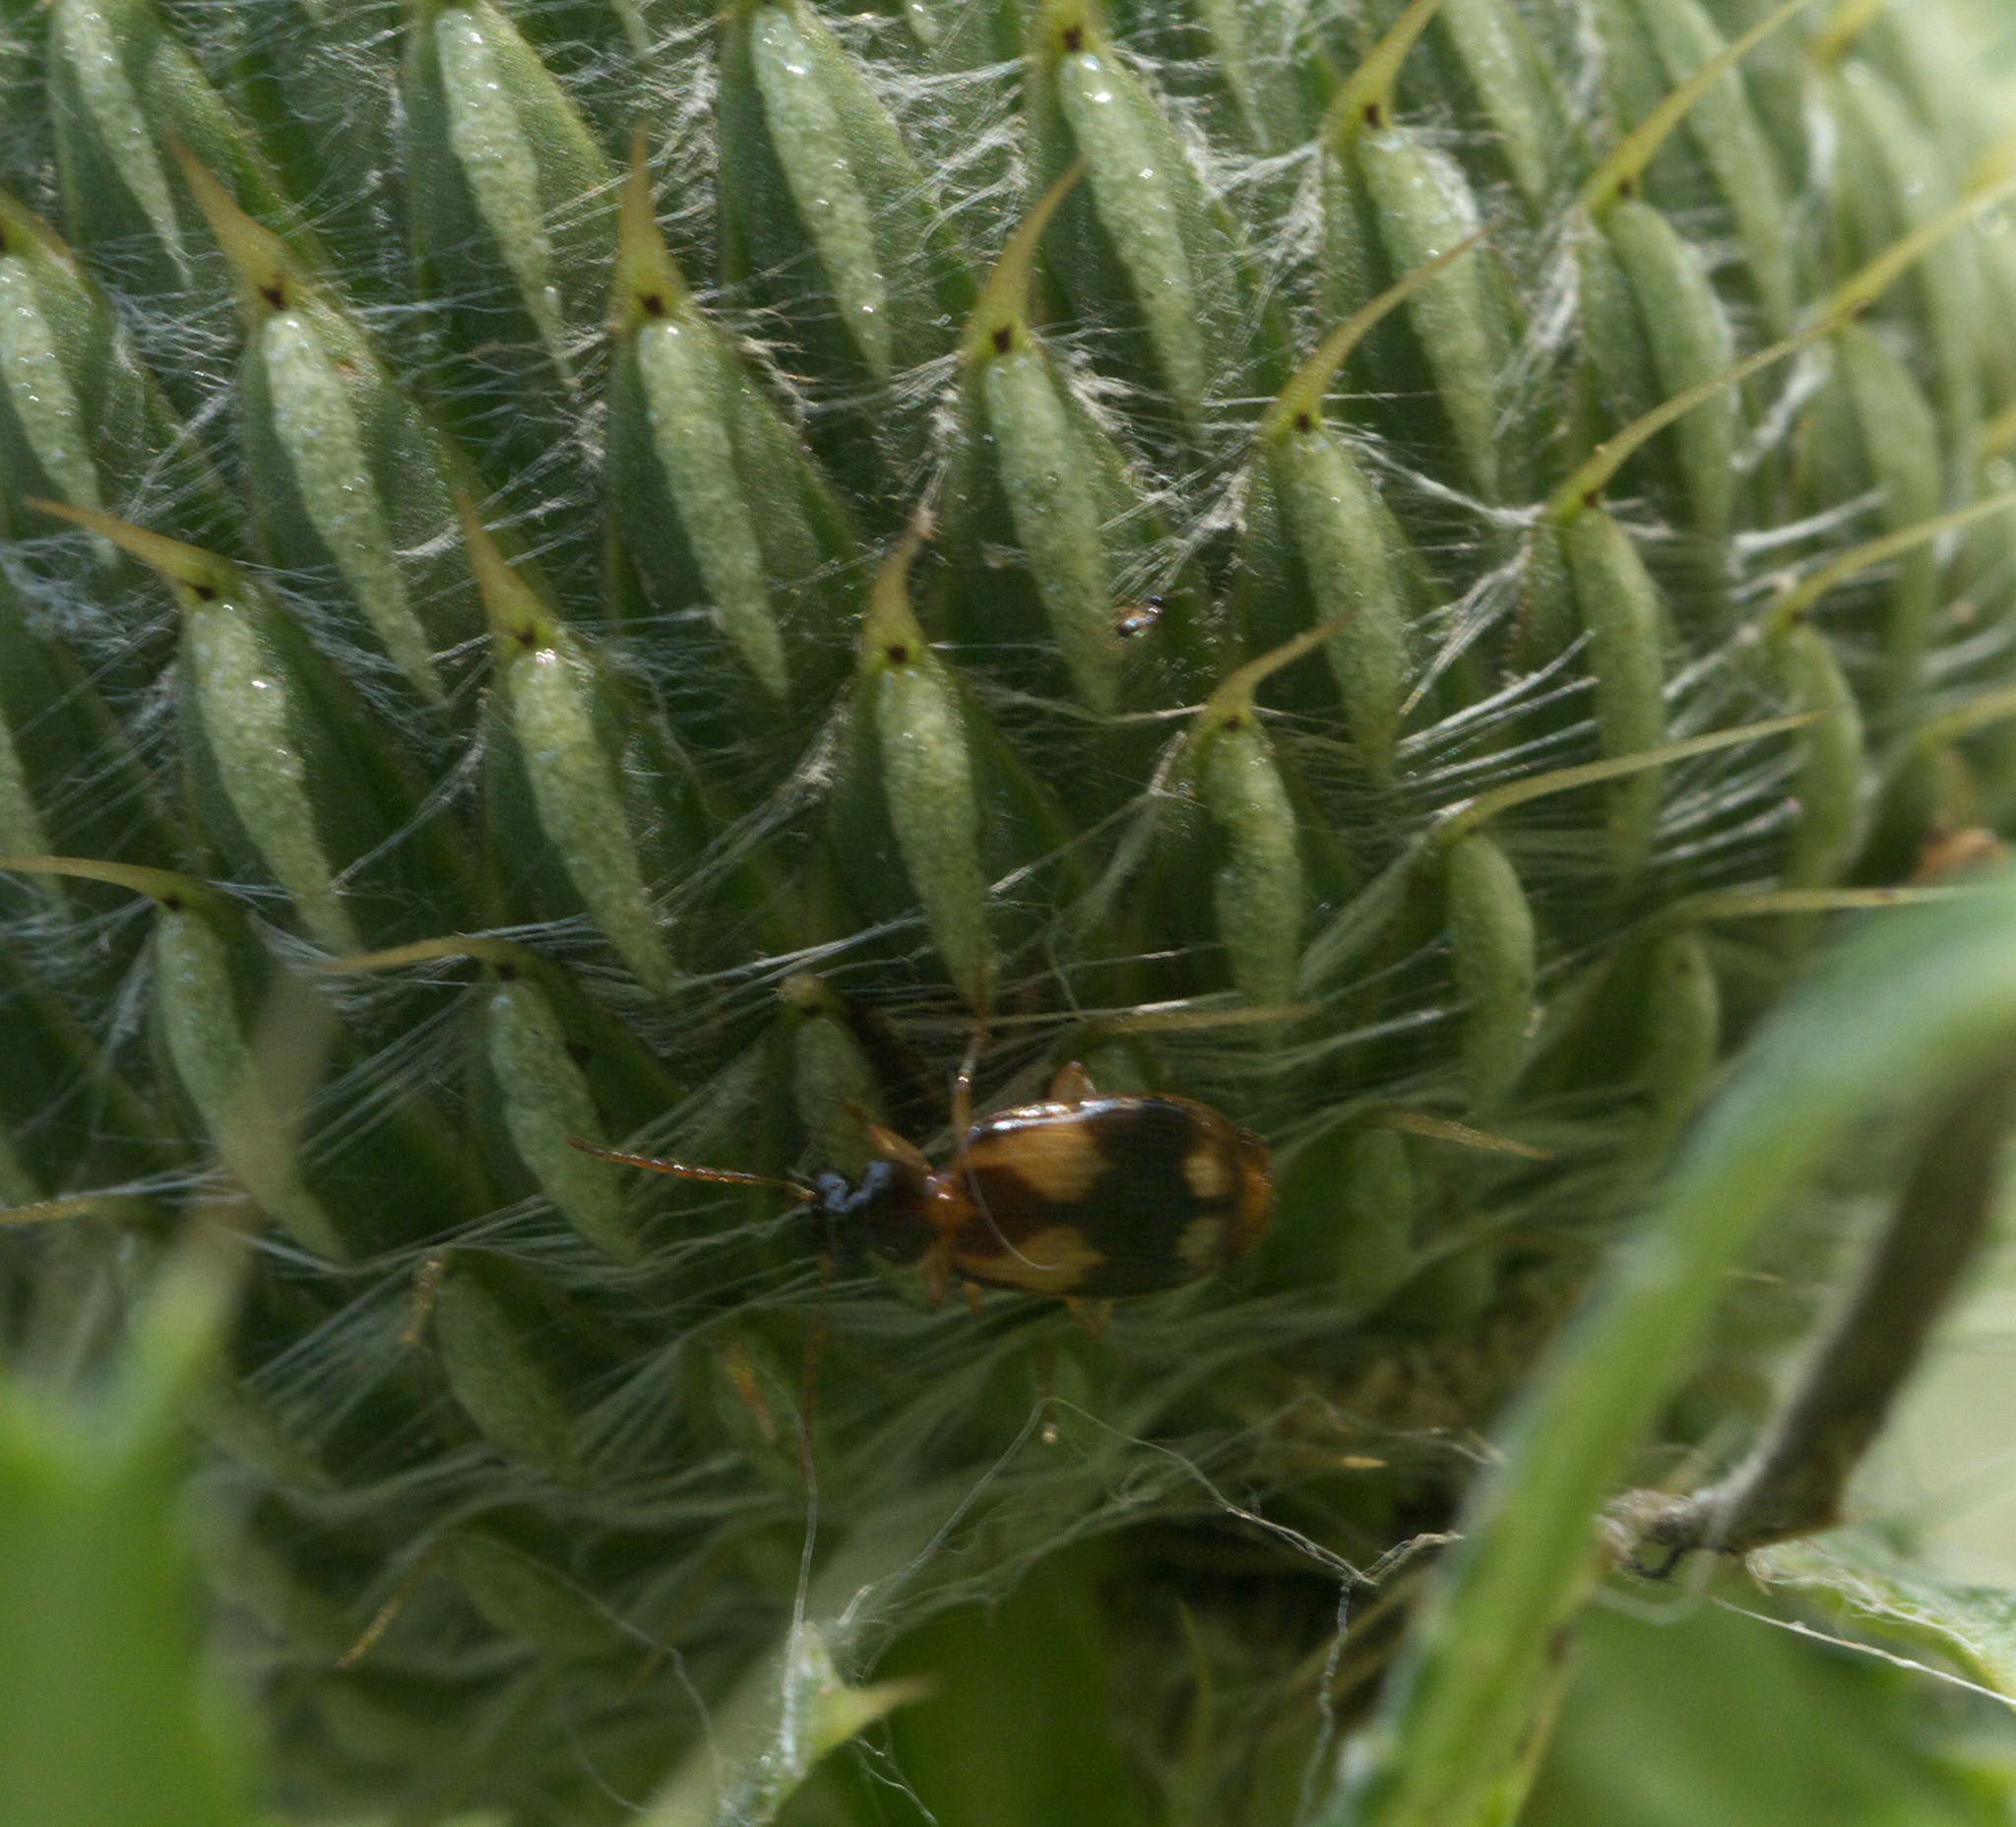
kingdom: Animalia
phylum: Arthropoda
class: Insecta
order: Coleoptera
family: Carabidae
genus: Lebia
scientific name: Lebia ornata
